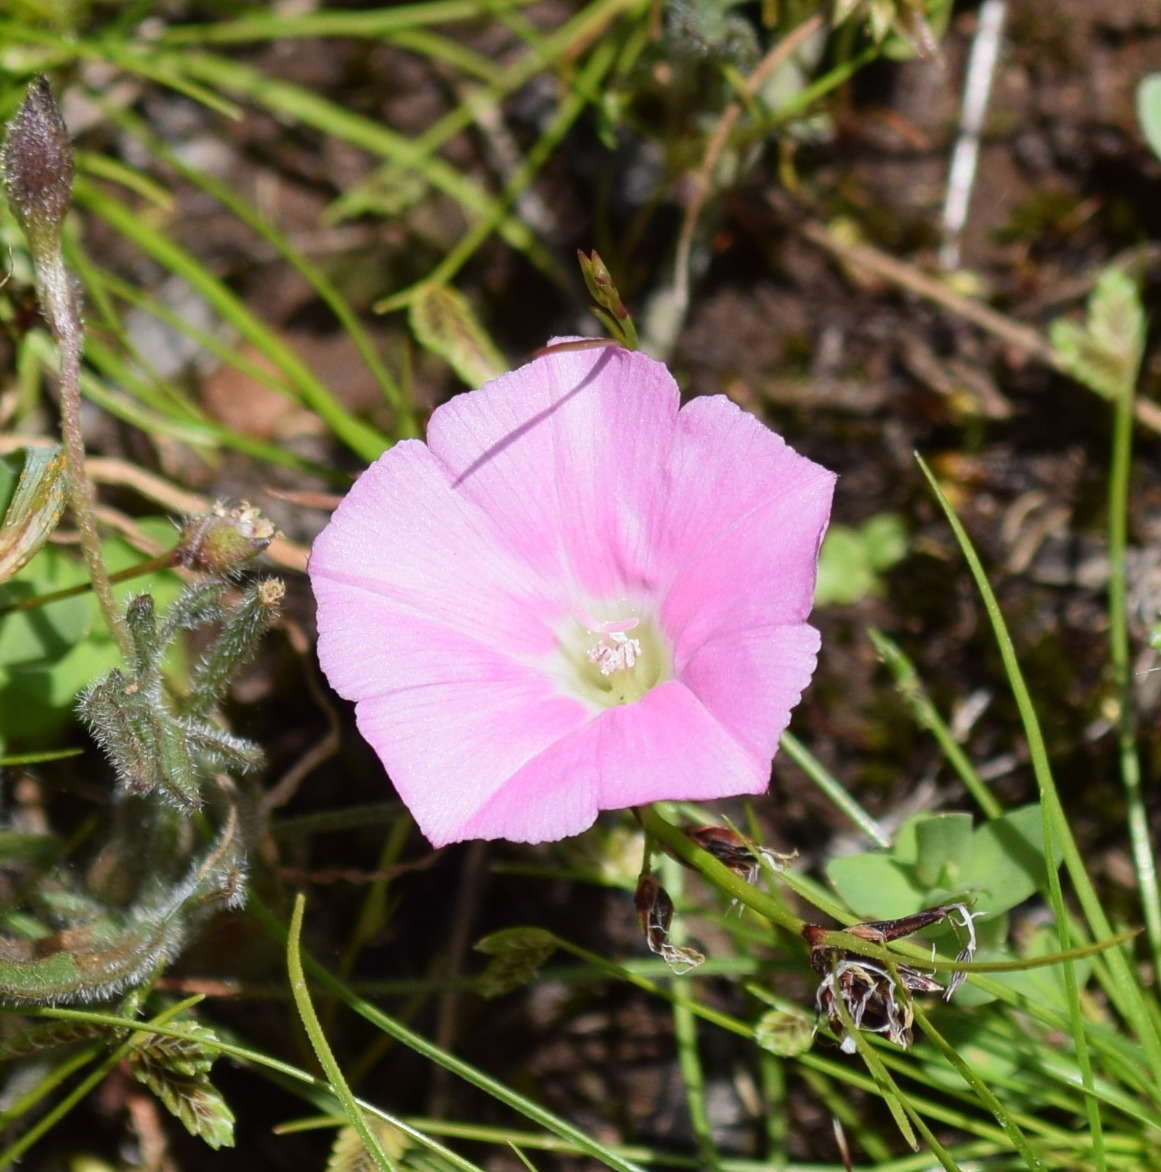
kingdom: Plantae
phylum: Tracheophyta
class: Magnoliopsida
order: Solanales
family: Convolvulaceae
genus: Convolvulus
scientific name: Convolvulus angustissimus
